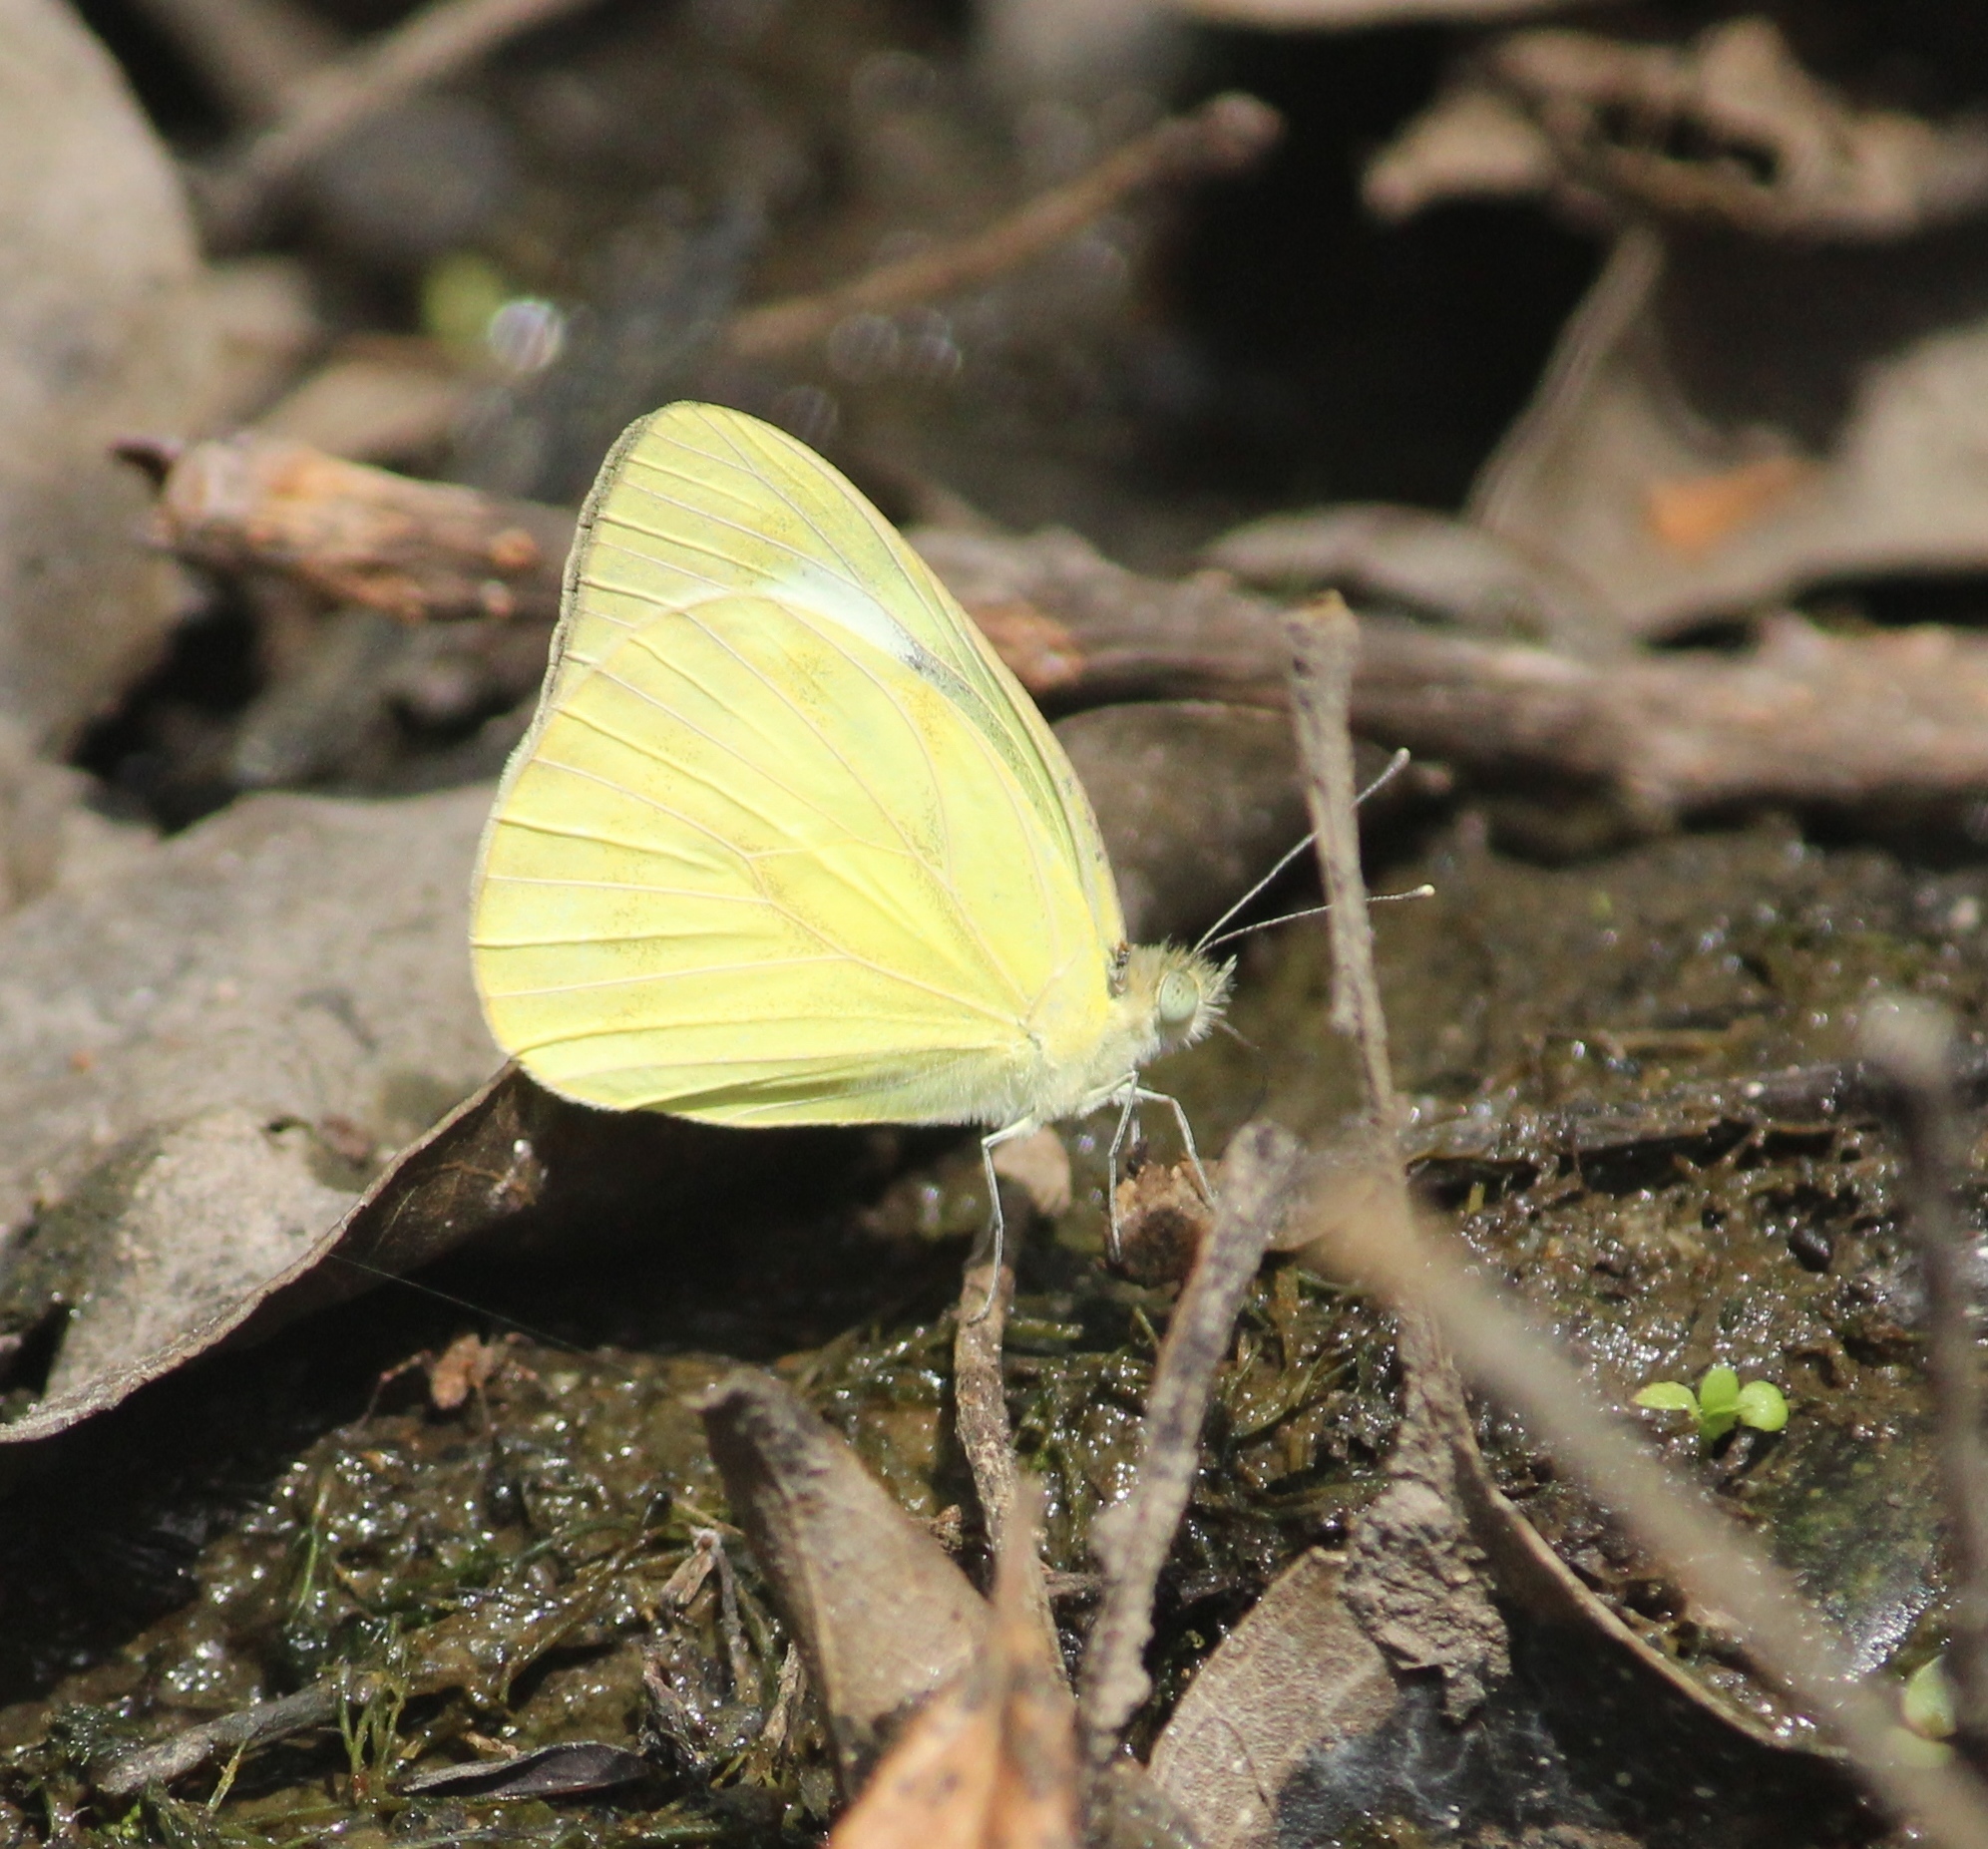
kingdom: Animalia
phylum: Arthropoda
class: Insecta
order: Lepidoptera
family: Pieridae
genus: Cepora
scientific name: Cepora nerissa
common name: Common gull
